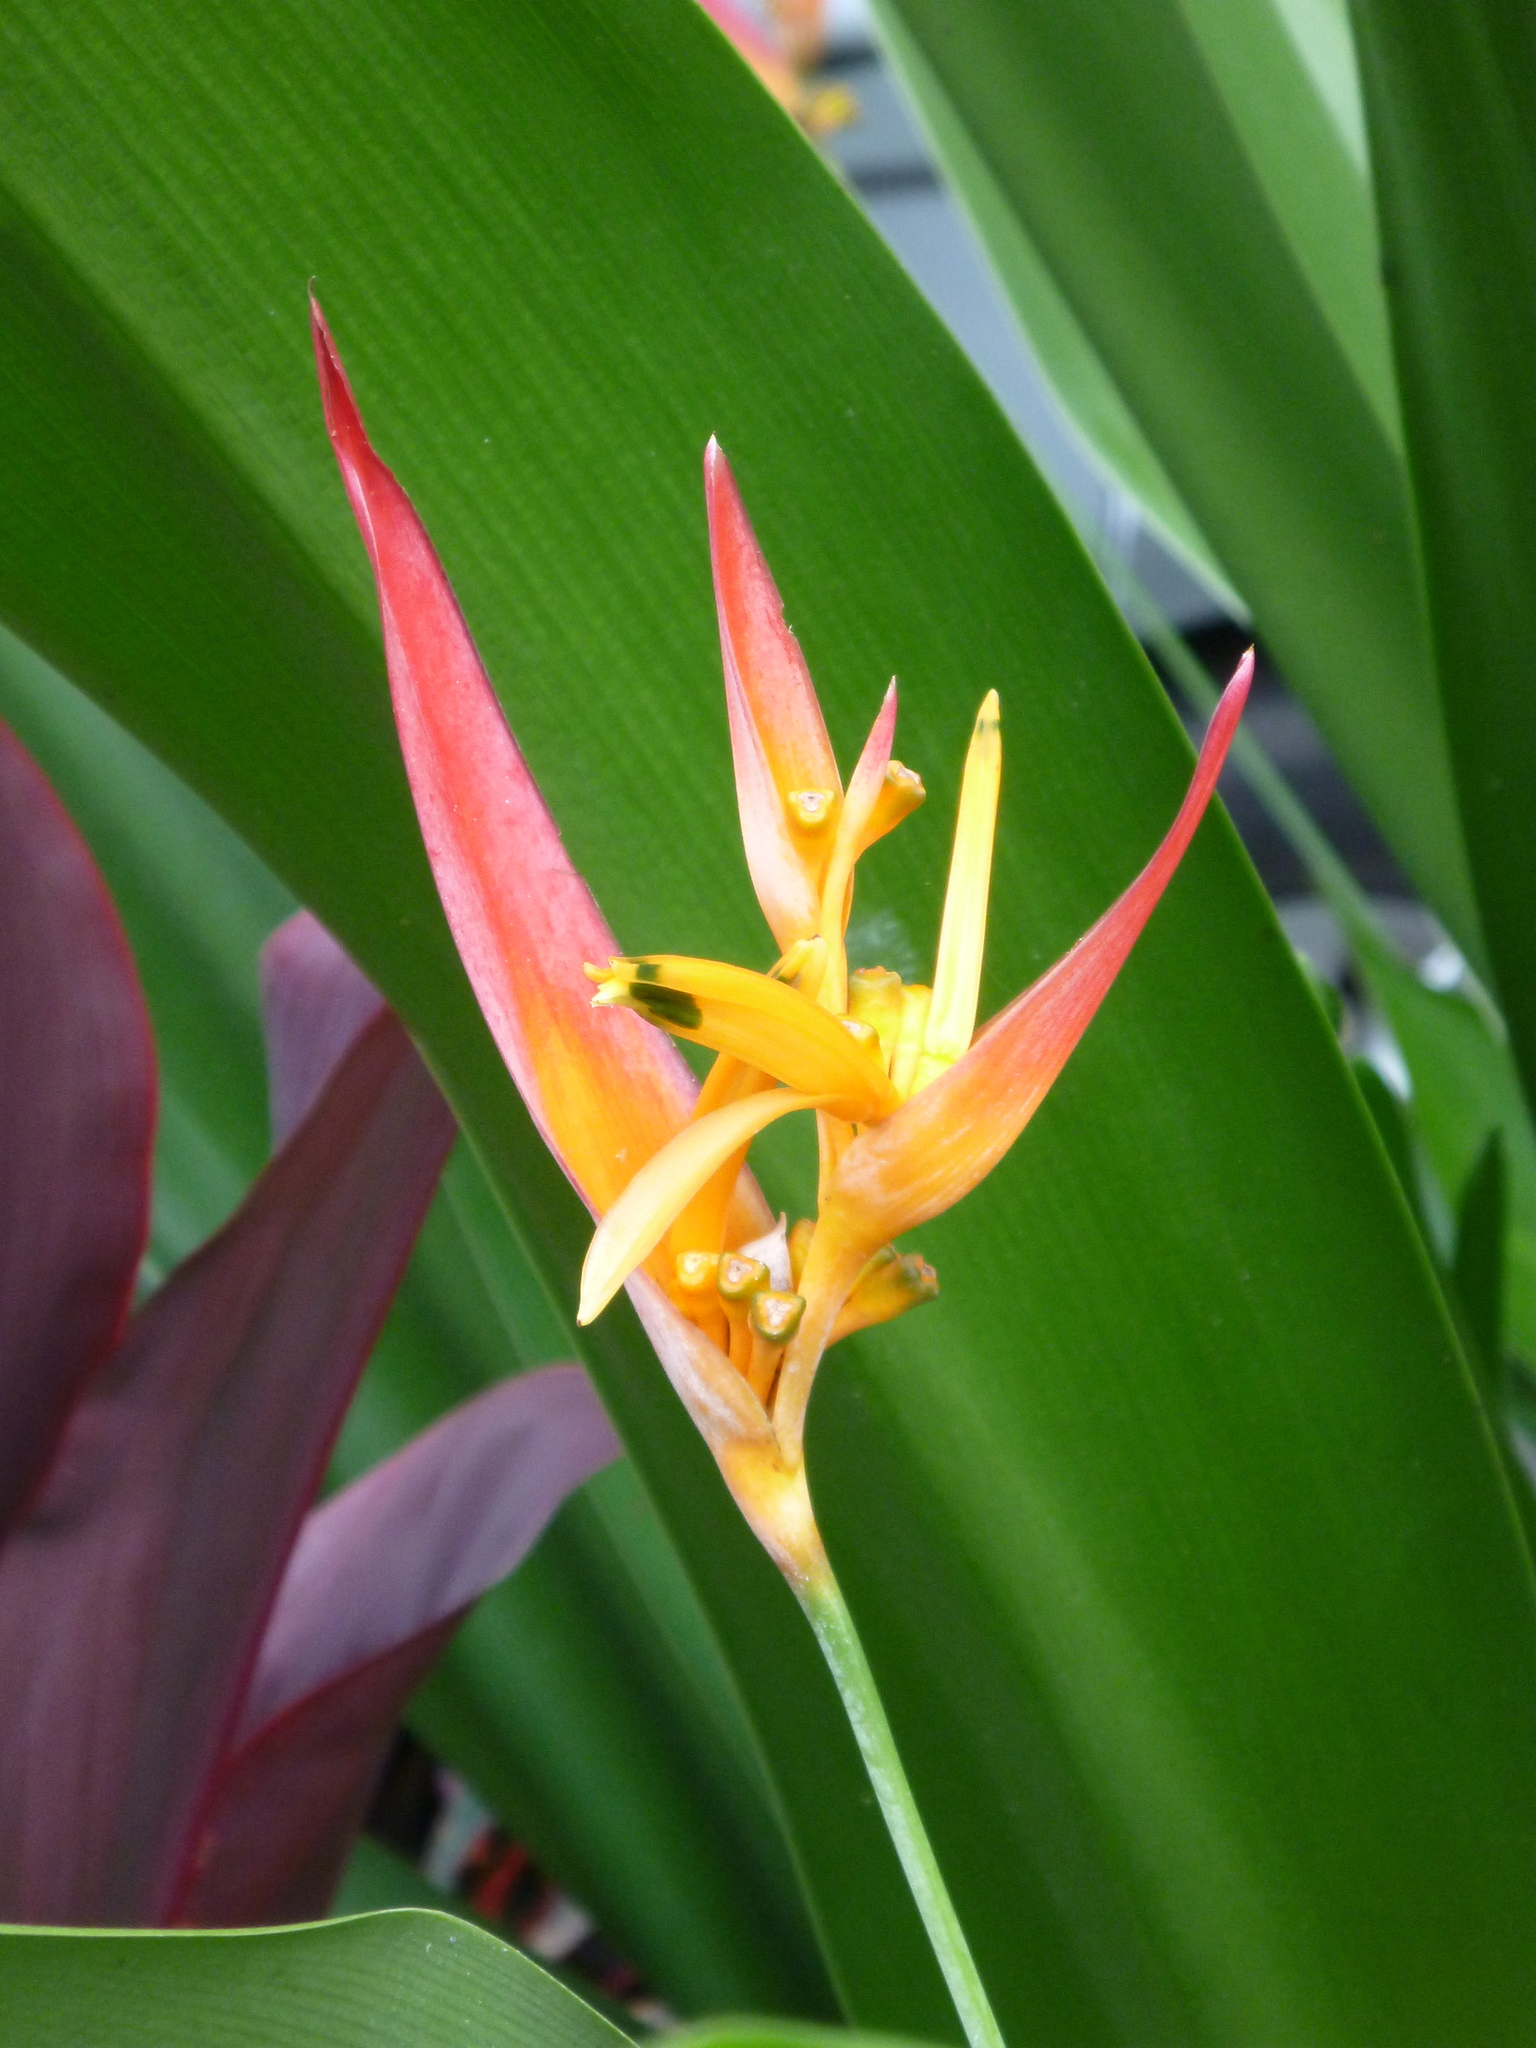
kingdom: Plantae
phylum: Tracheophyta
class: Liliopsida
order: Zingiberales
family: Heliconiaceae
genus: Heliconia
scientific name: Heliconia psittacorum
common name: Parrot's-flower
